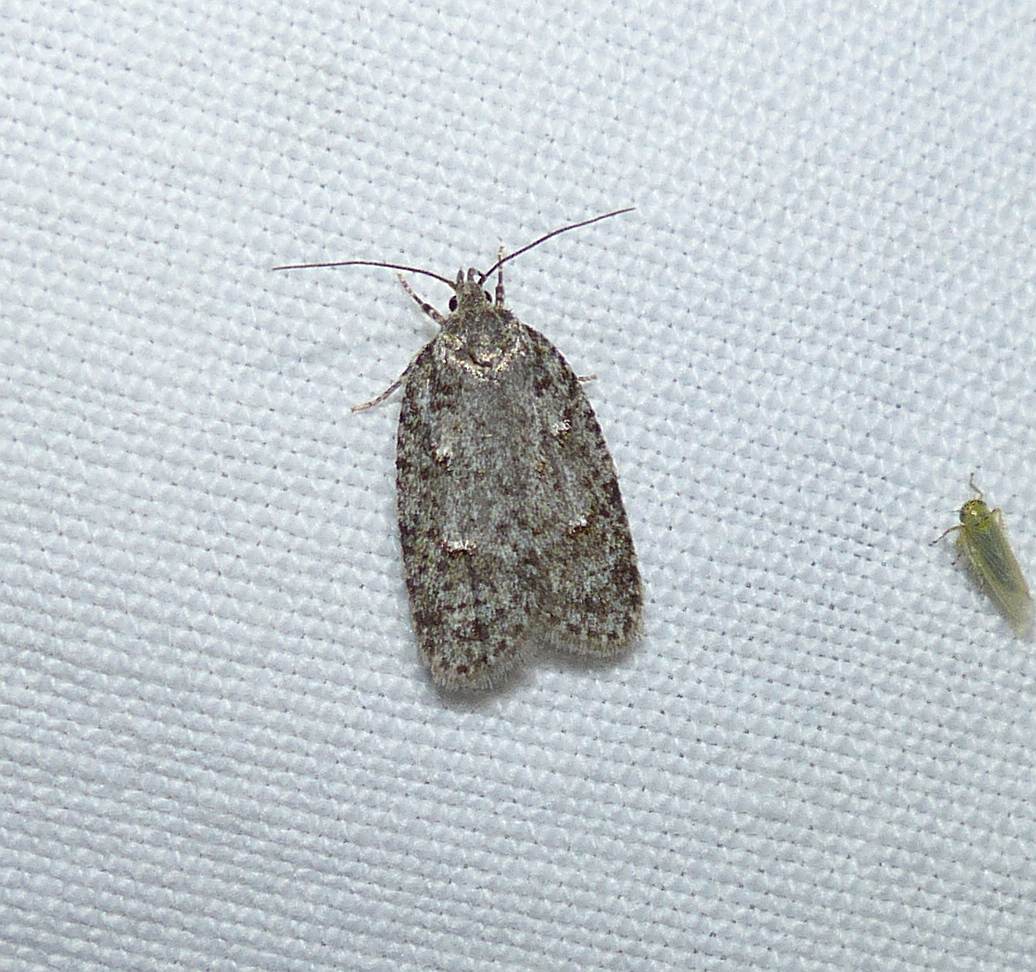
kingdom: Animalia
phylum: Arthropoda
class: Insecta
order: Lepidoptera
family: Depressariidae
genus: Bibarrambla
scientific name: Bibarrambla allenella
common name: Bog bibarrambla moth
